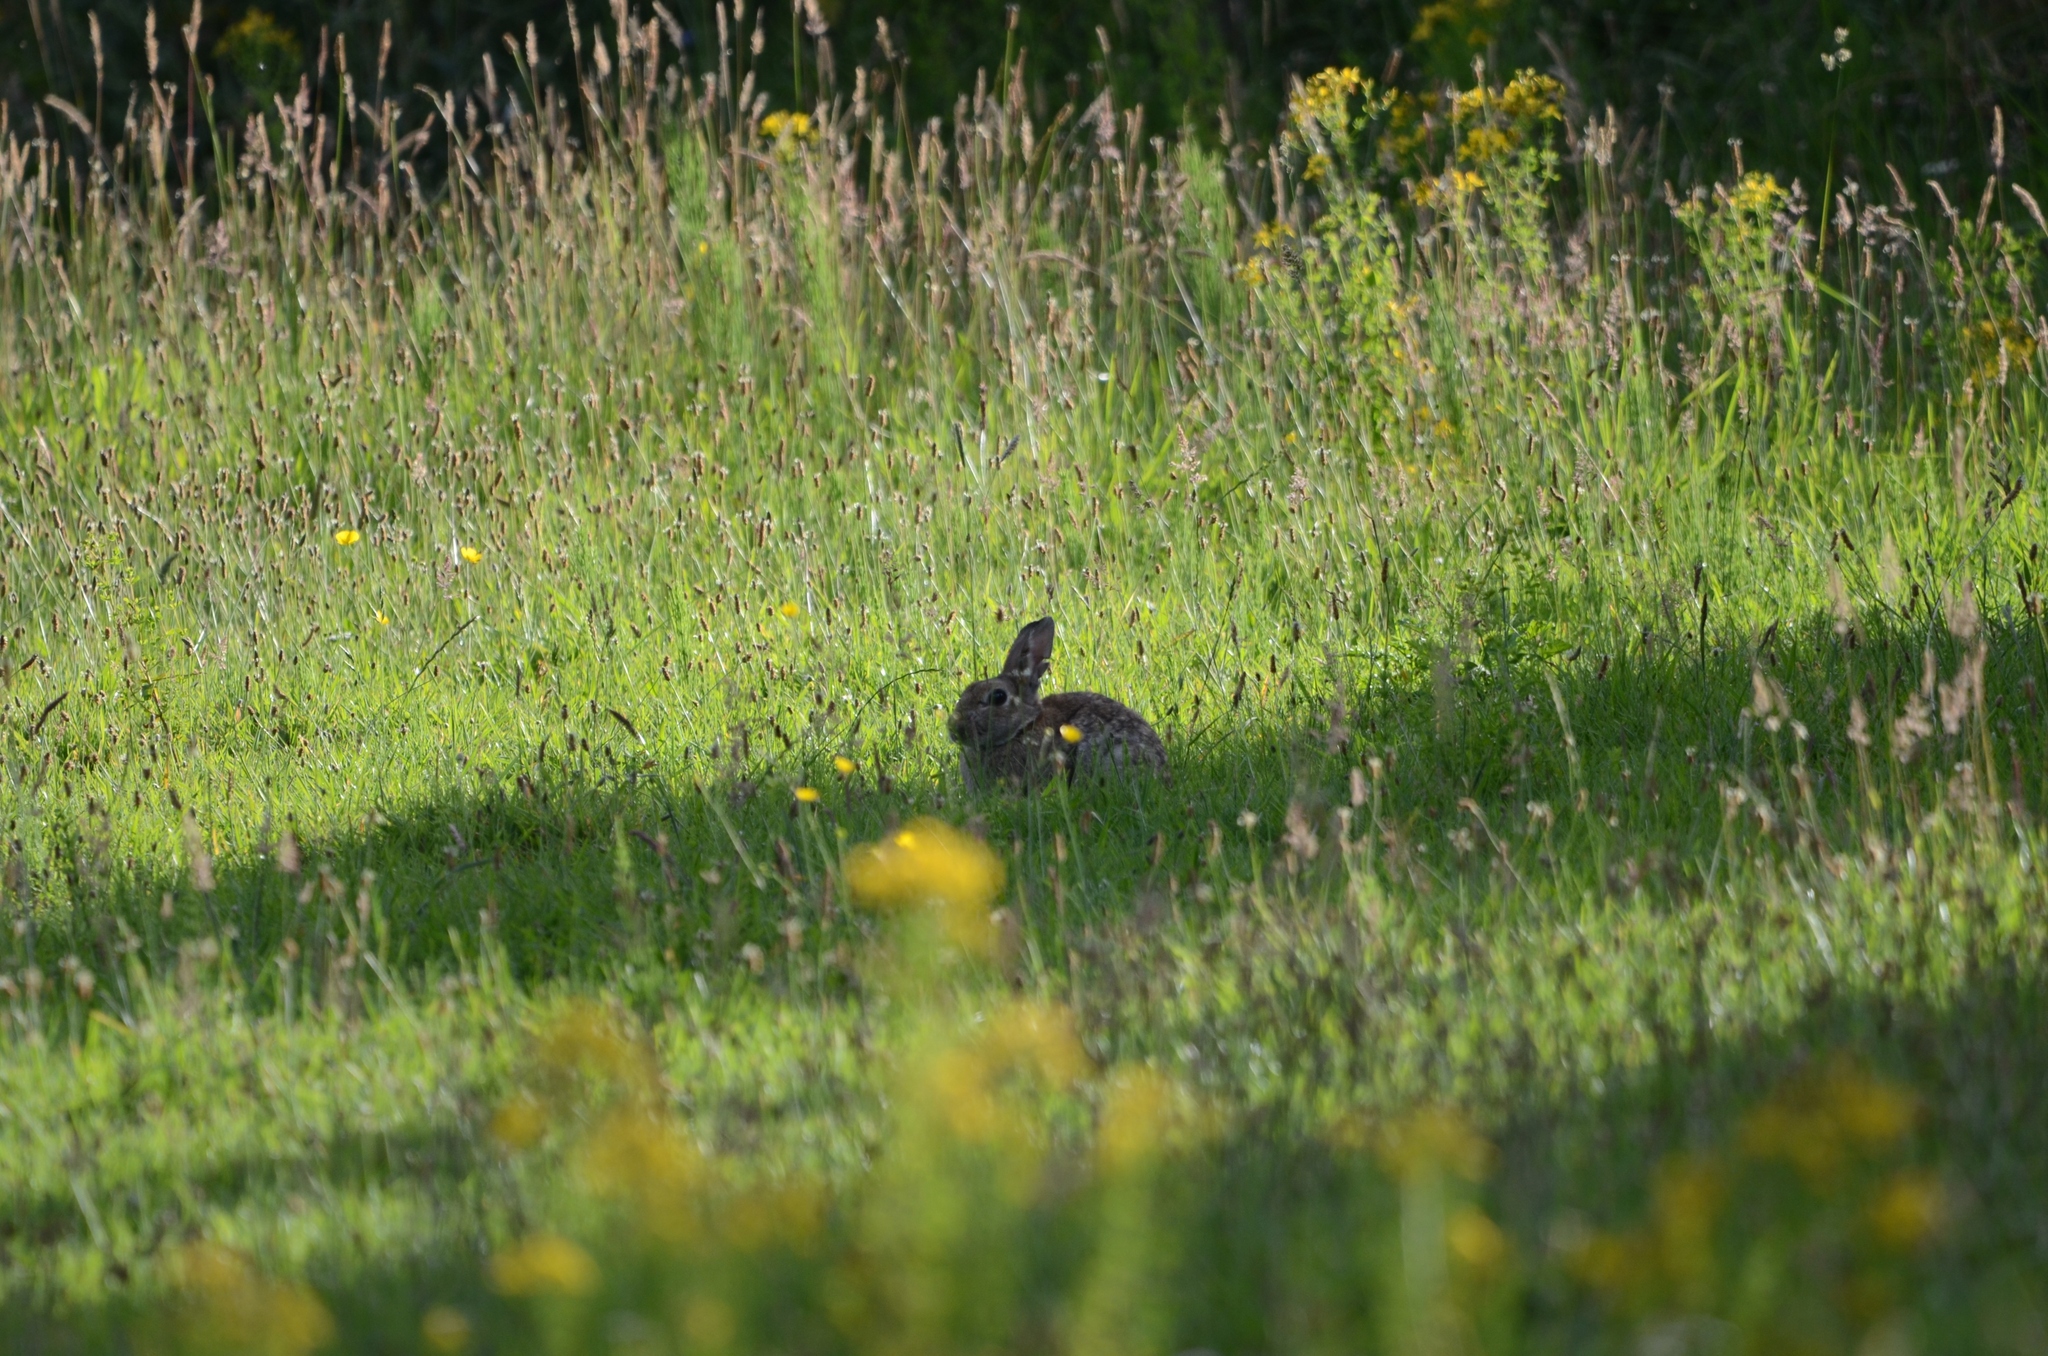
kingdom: Animalia
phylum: Chordata
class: Mammalia
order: Lagomorpha
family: Leporidae
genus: Oryctolagus
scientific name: Oryctolagus cuniculus
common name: European rabbit
